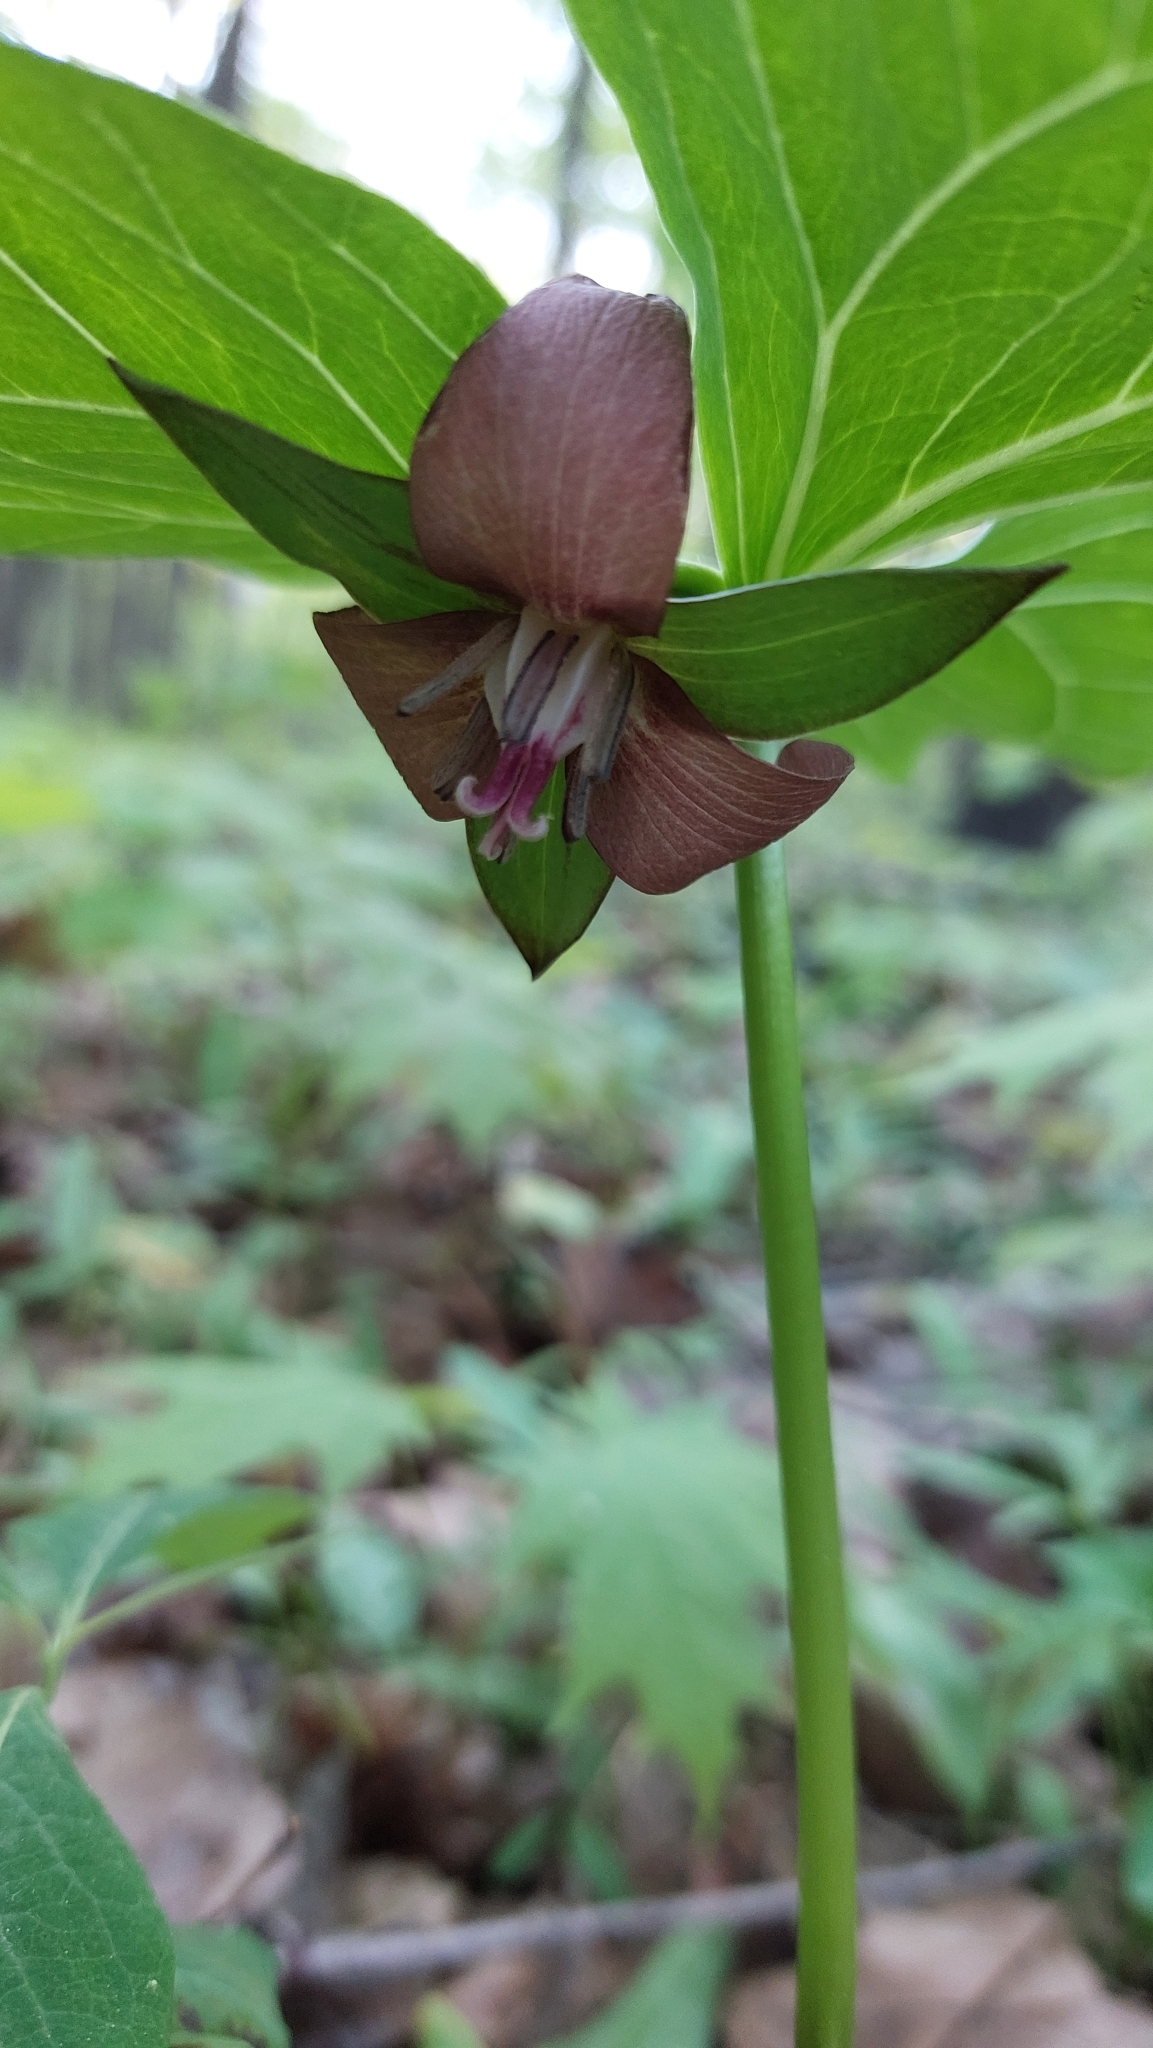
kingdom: Plantae
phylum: Tracheophyta
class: Liliopsida
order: Liliales
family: Melanthiaceae
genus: Trillium
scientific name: Trillium flexipes
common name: Drooping trillium
